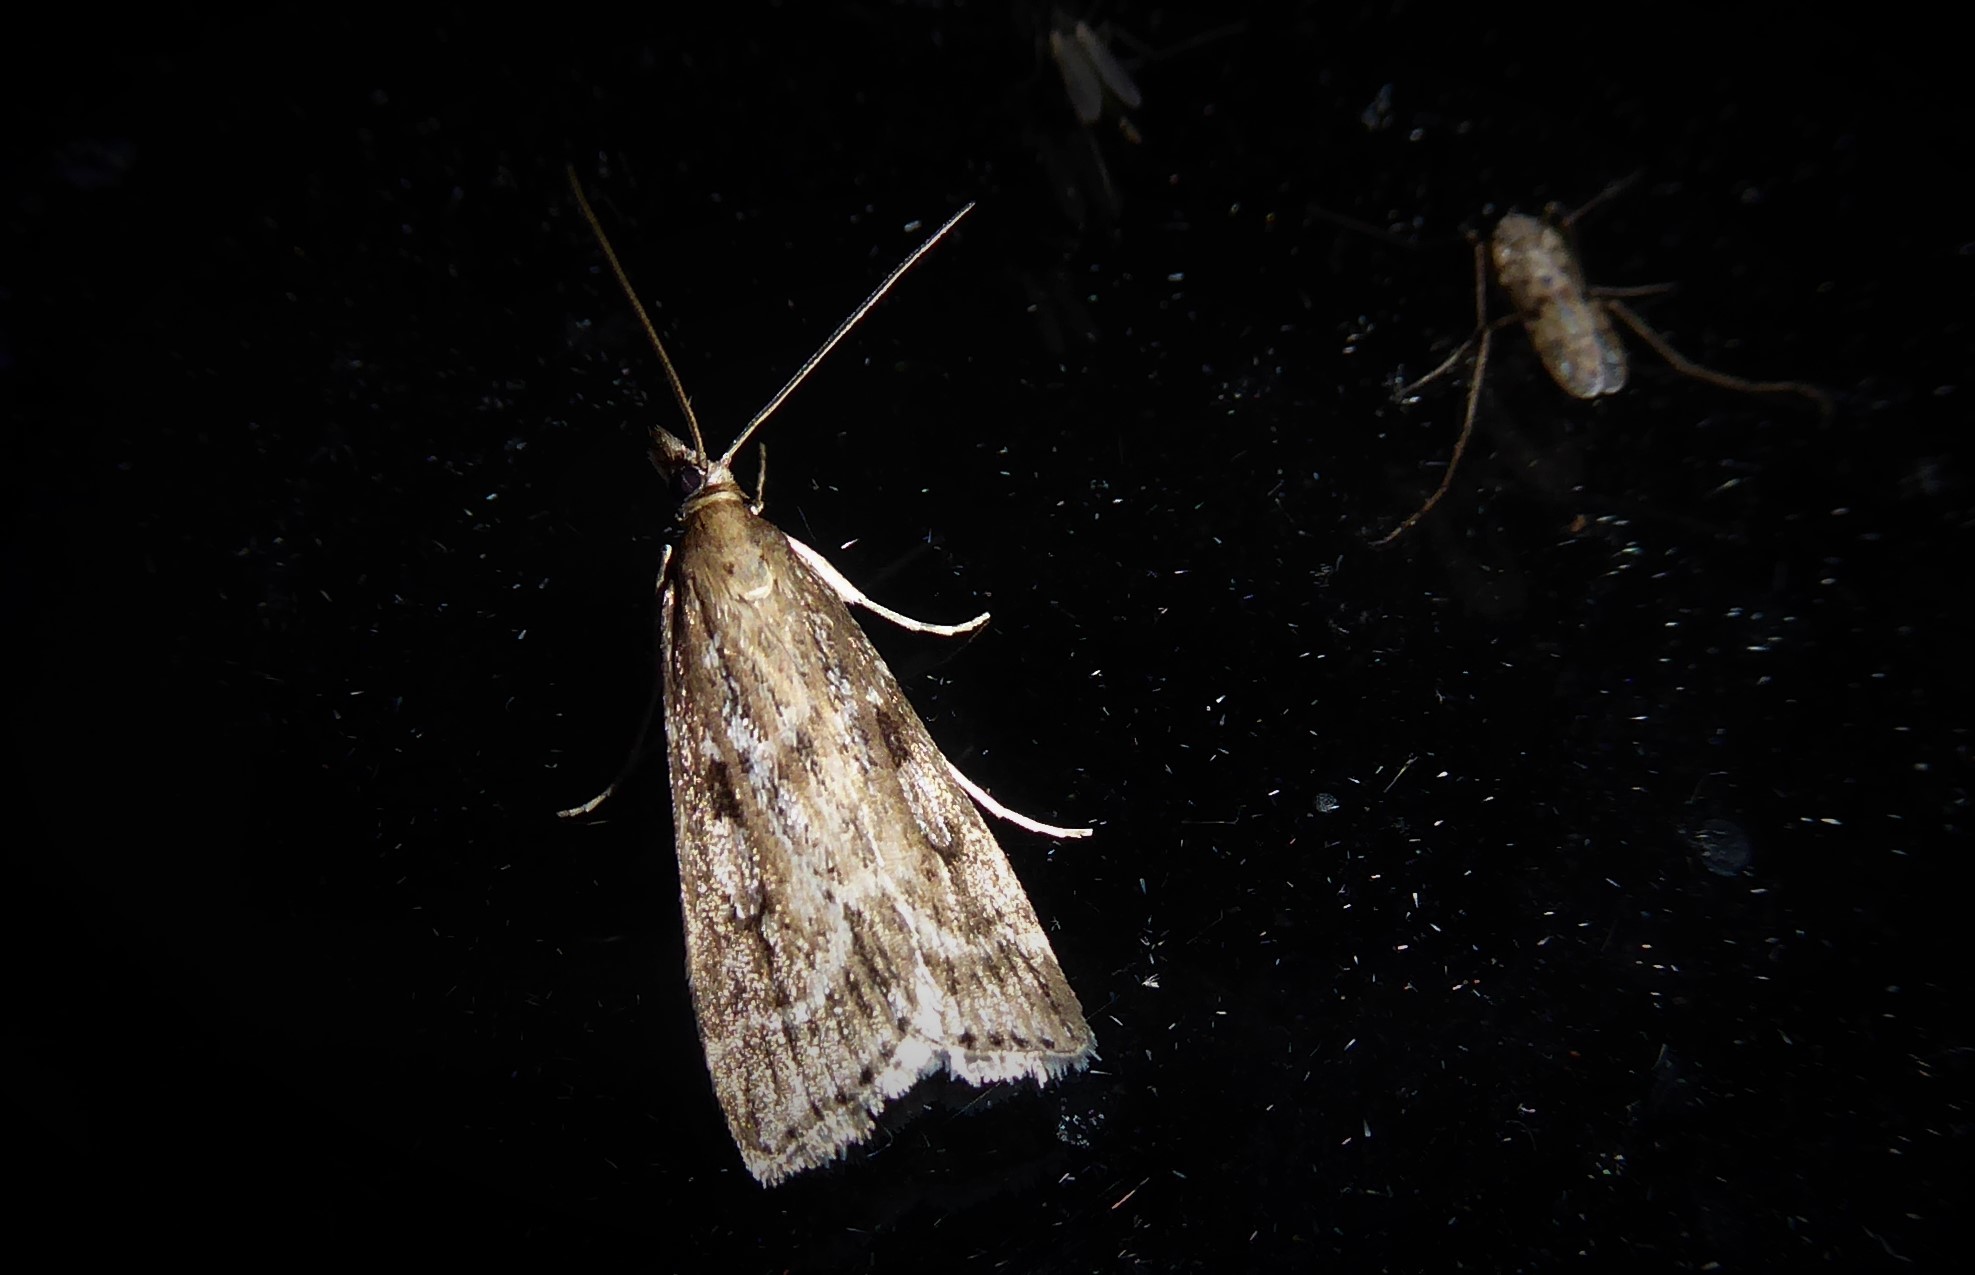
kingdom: Animalia
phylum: Arthropoda
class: Insecta
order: Lepidoptera
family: Crambidae
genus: Eudonia
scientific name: Eudonia octophora
